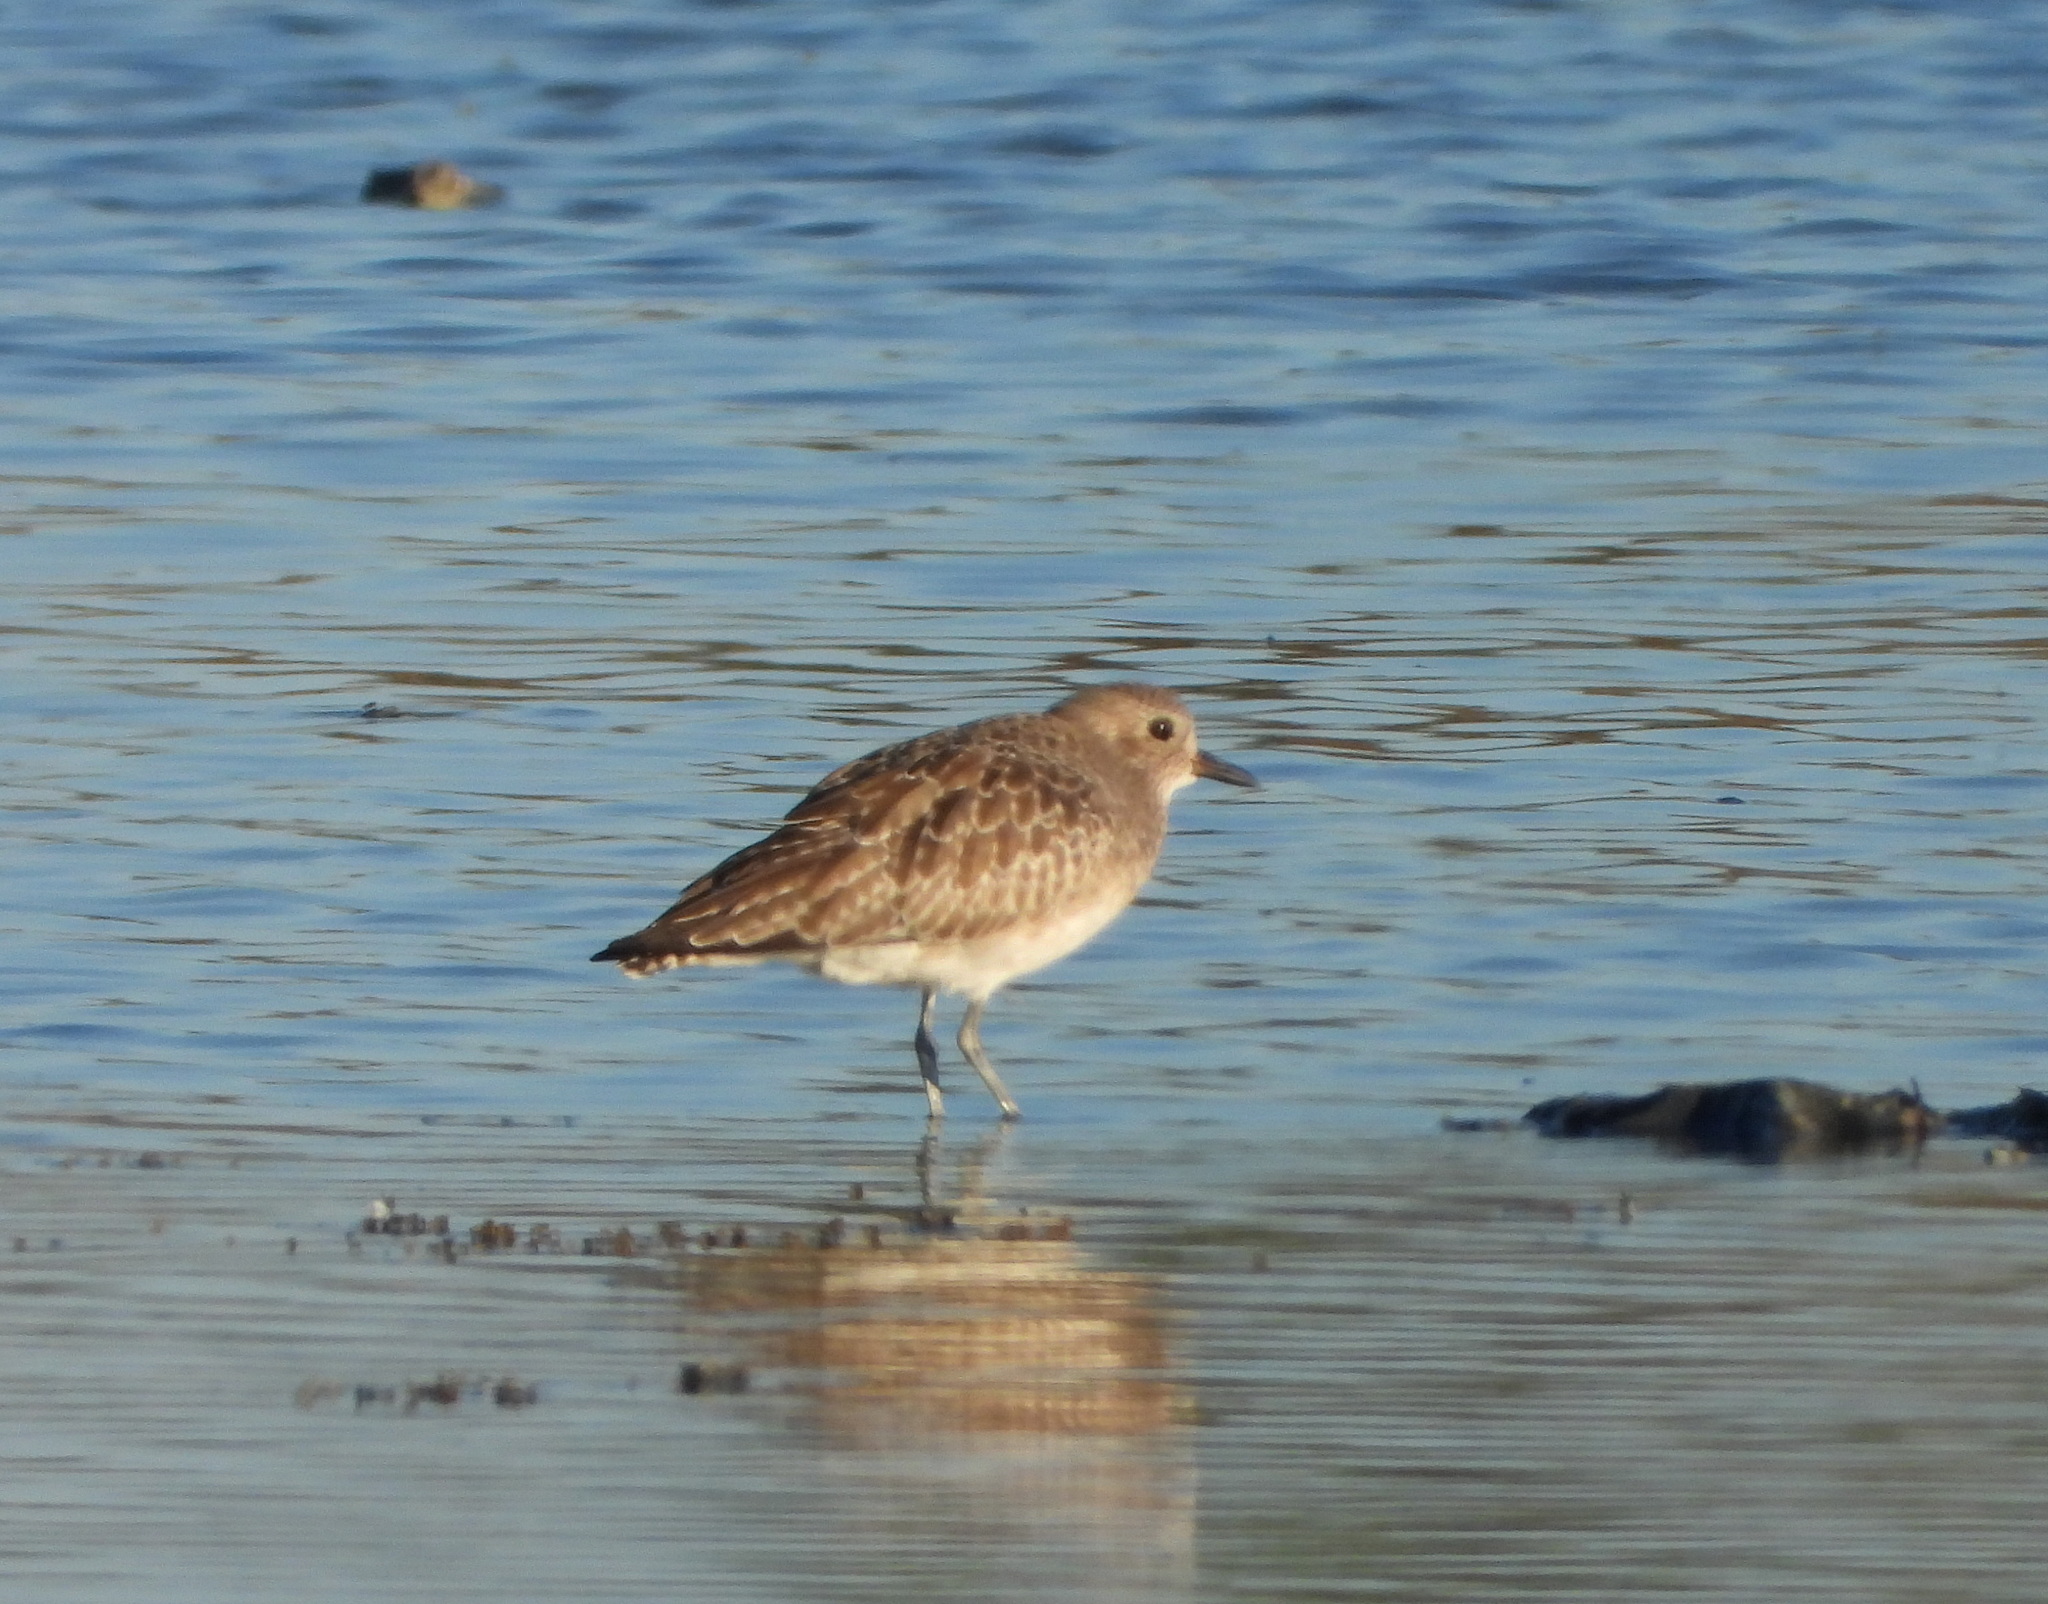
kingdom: Animalia
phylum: Chordata
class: Aves
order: Charadriiformes
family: Charadriidae
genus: Pluvialis
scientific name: Pluvialis squatarola
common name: Grey plover
